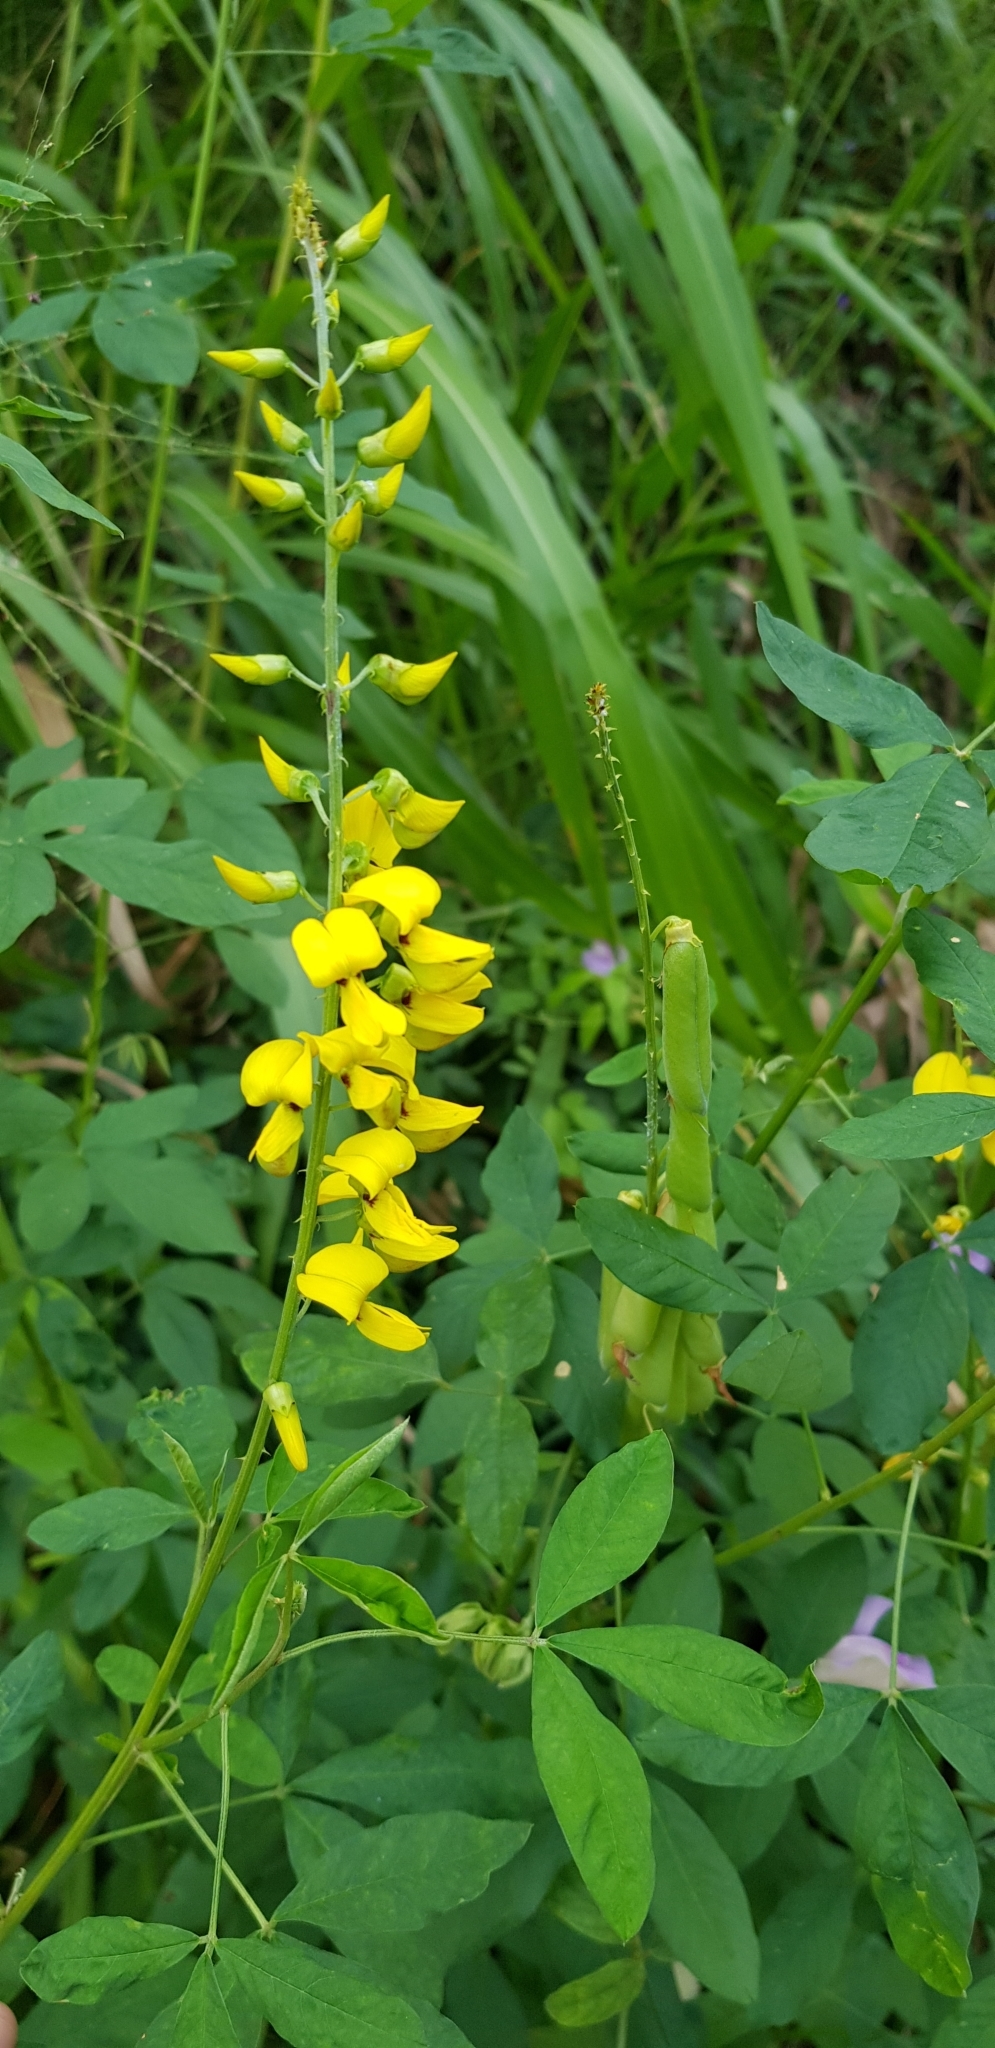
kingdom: Plantae
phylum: Tracheophyta
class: Magnoliopsida
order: Fabales
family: Fabaceae
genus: Crotalaria
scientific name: Crotalaria trichotoma
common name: West indian rattlebox
